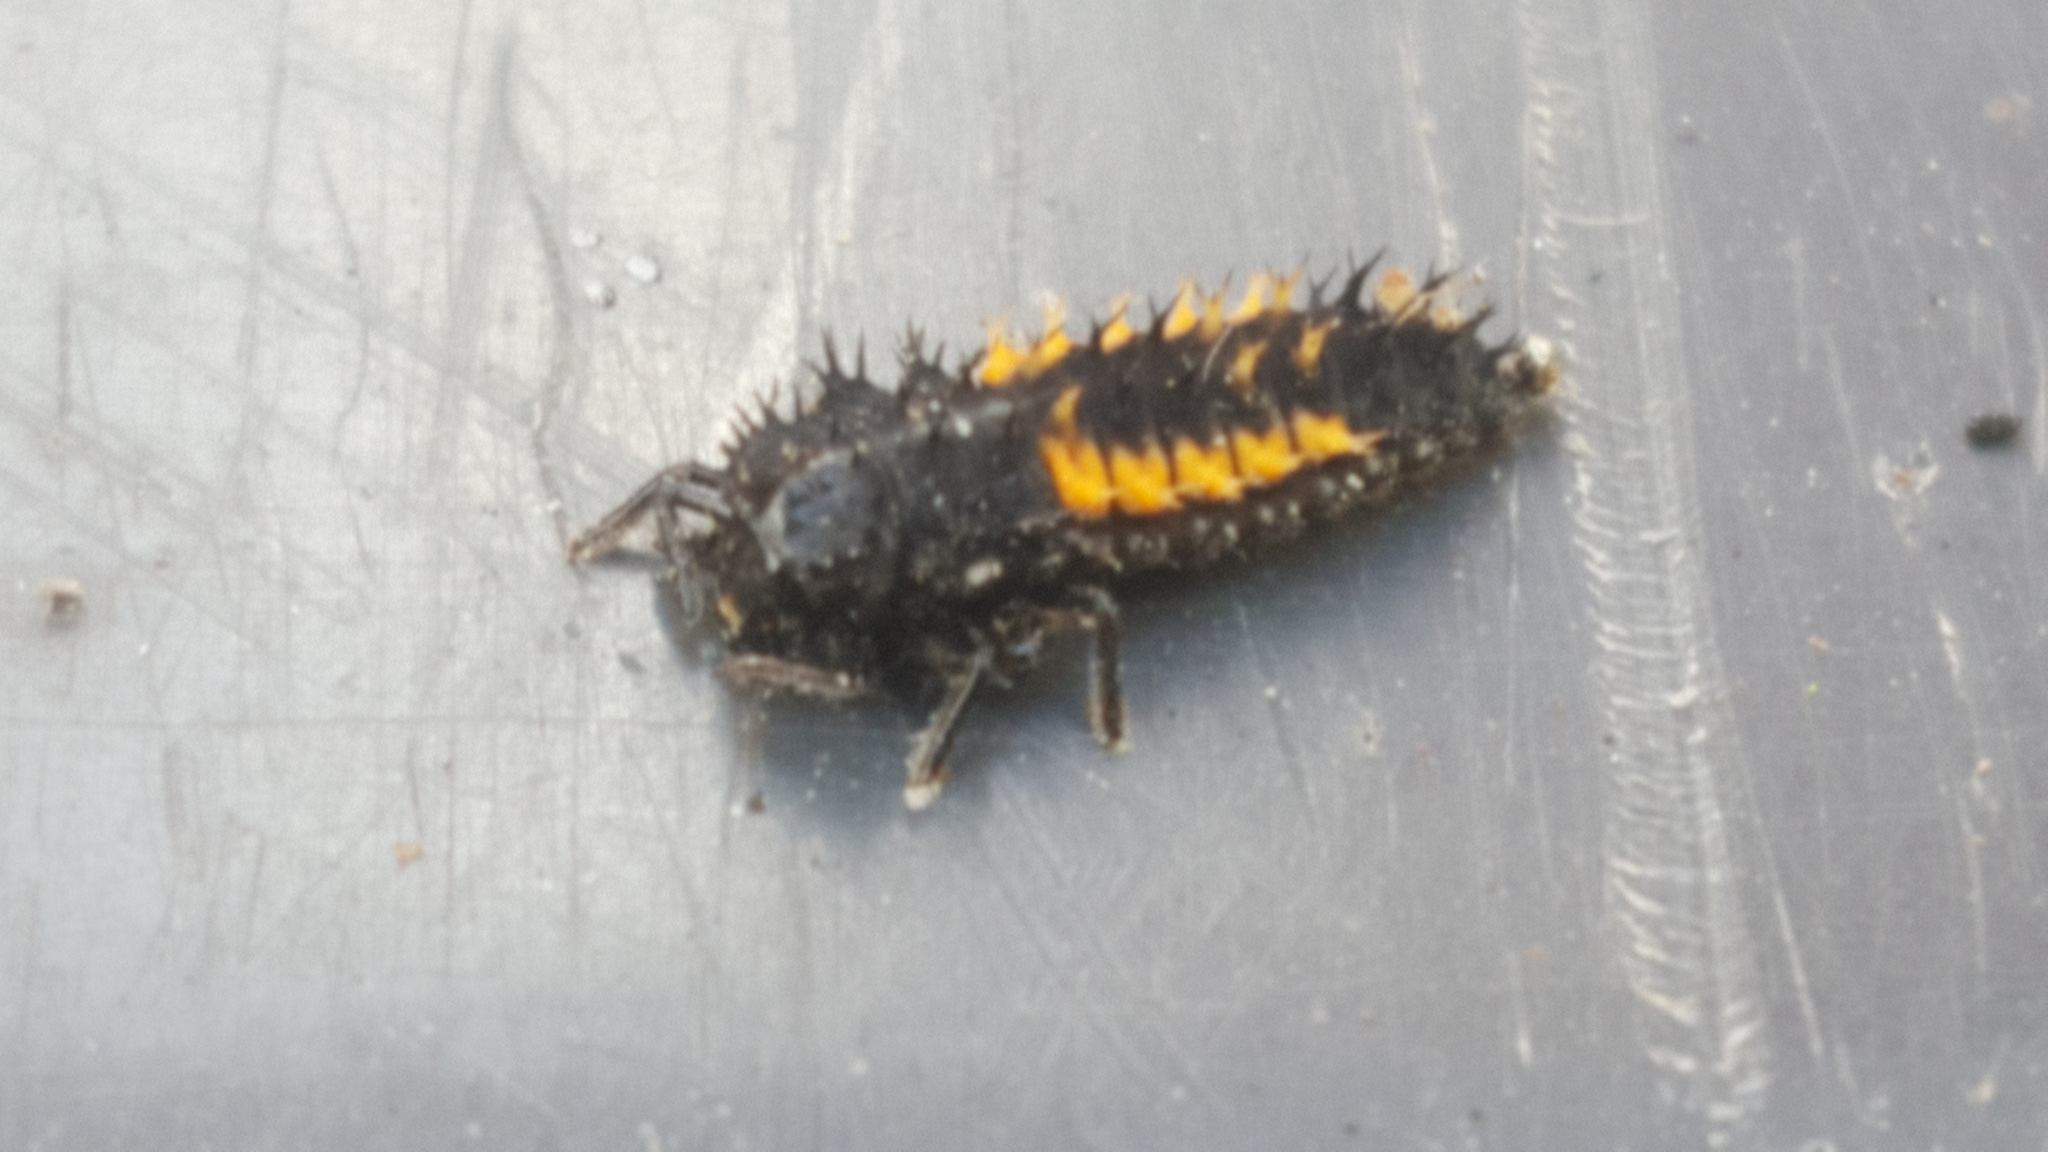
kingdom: Animalia
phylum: Arthropoda
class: Insecta
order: Coleoptera
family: Coccinellidae
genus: Harmonia
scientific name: Harmonia axyridis
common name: Harlequin ladybird
